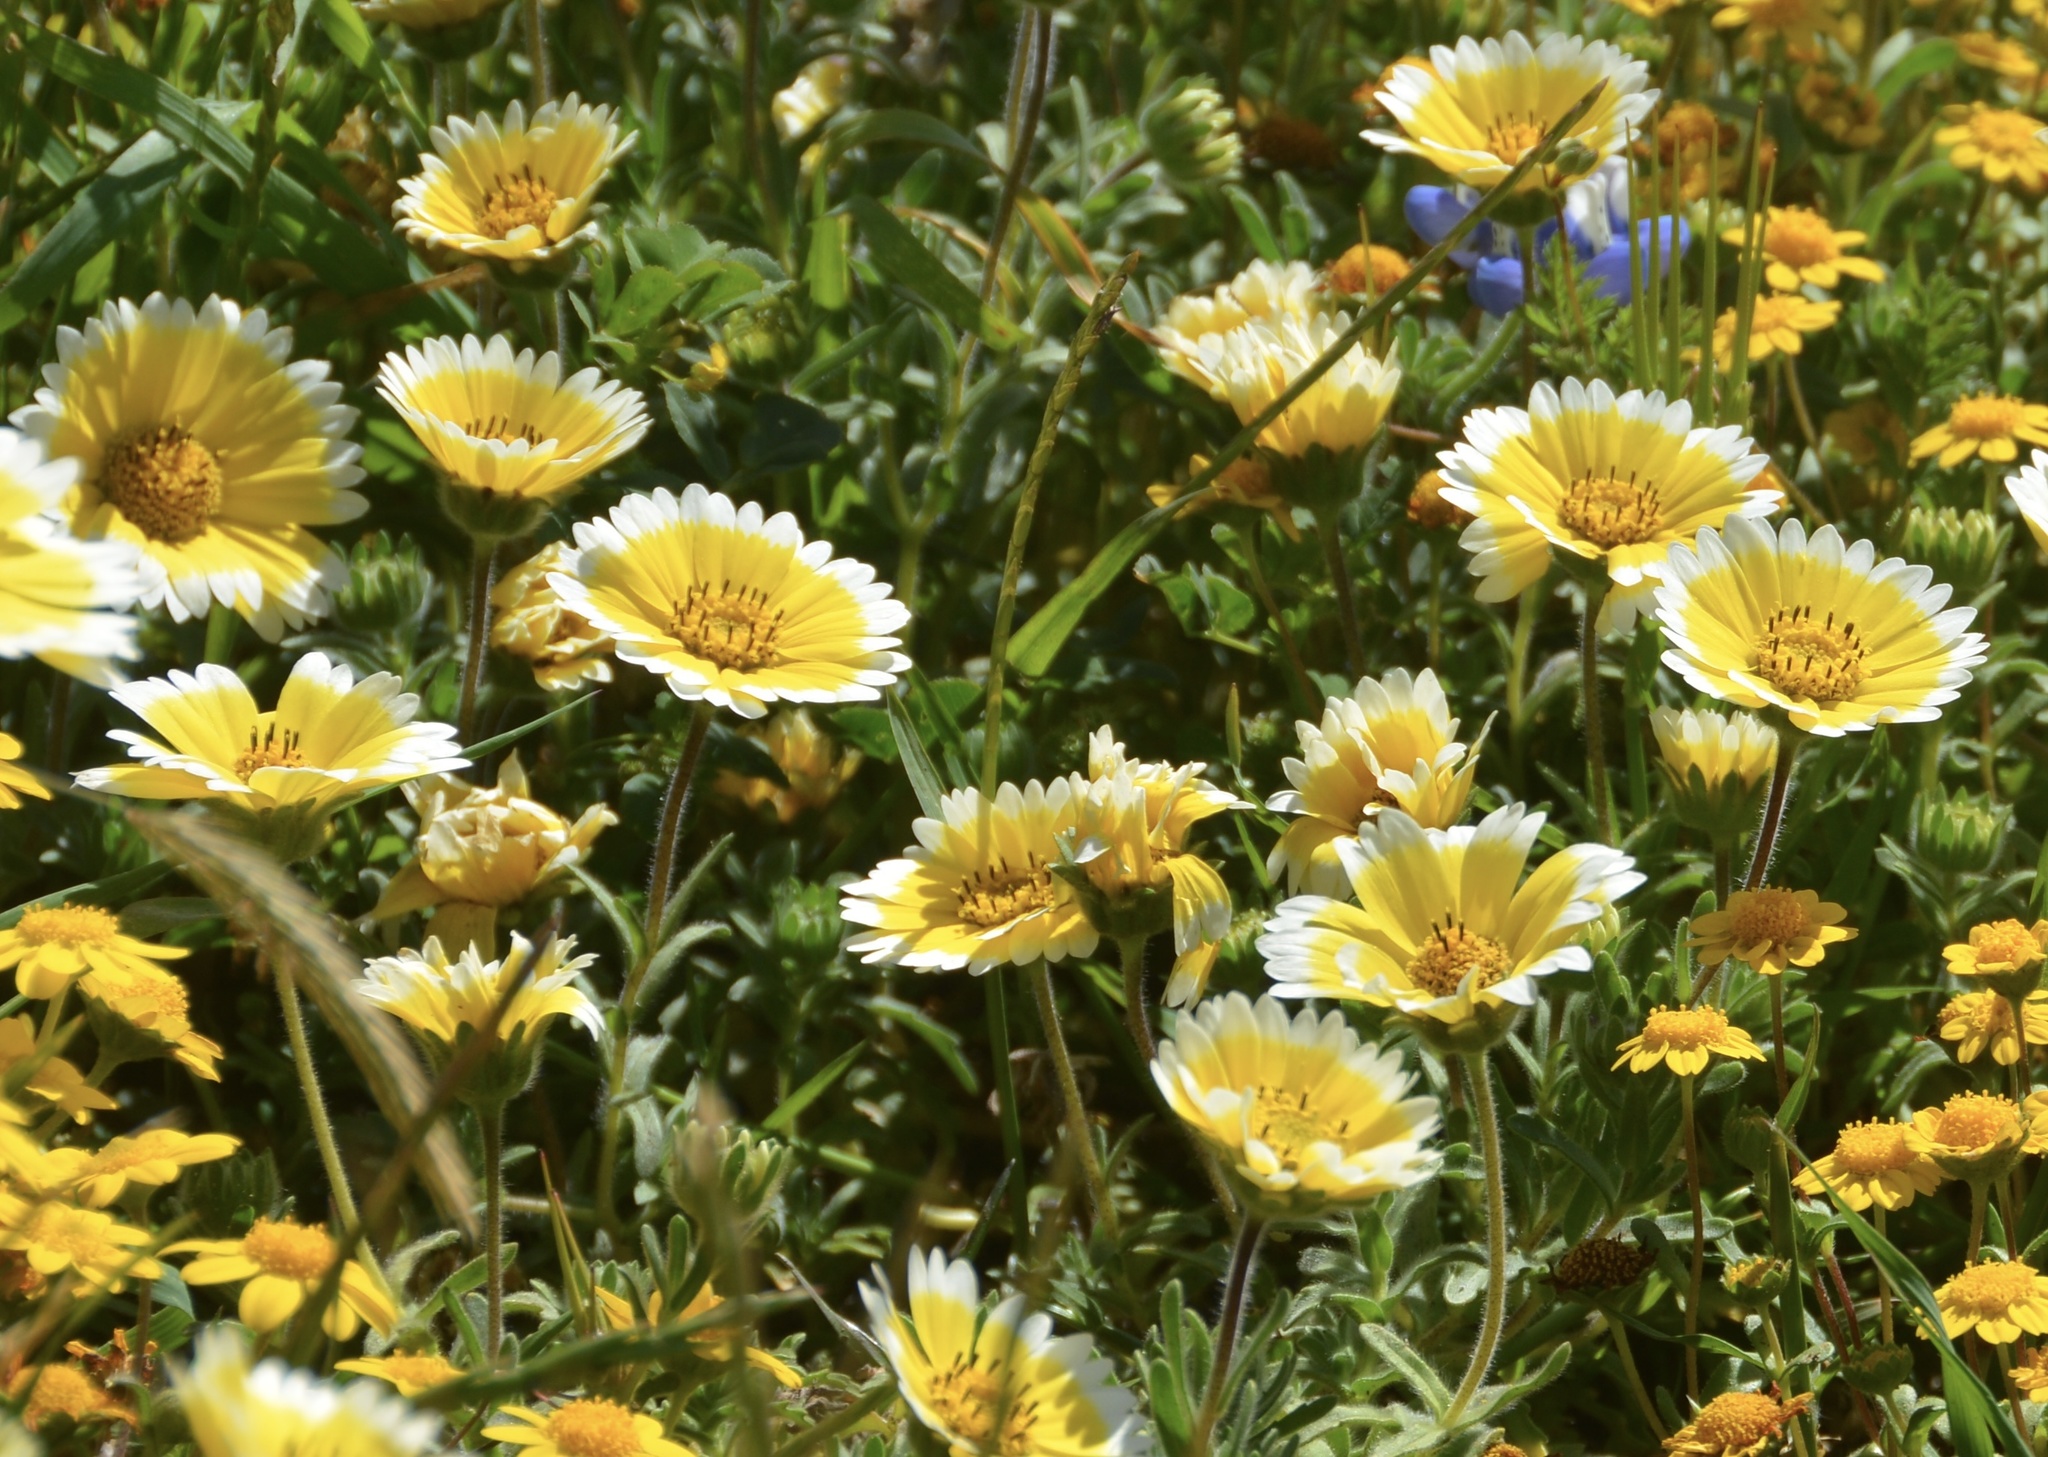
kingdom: Plantae
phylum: Tracheophyta
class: Magnoliopsida
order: Asterales
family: Asteraceae
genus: Layia
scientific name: Layia platyglossa
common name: Tidy-tips
